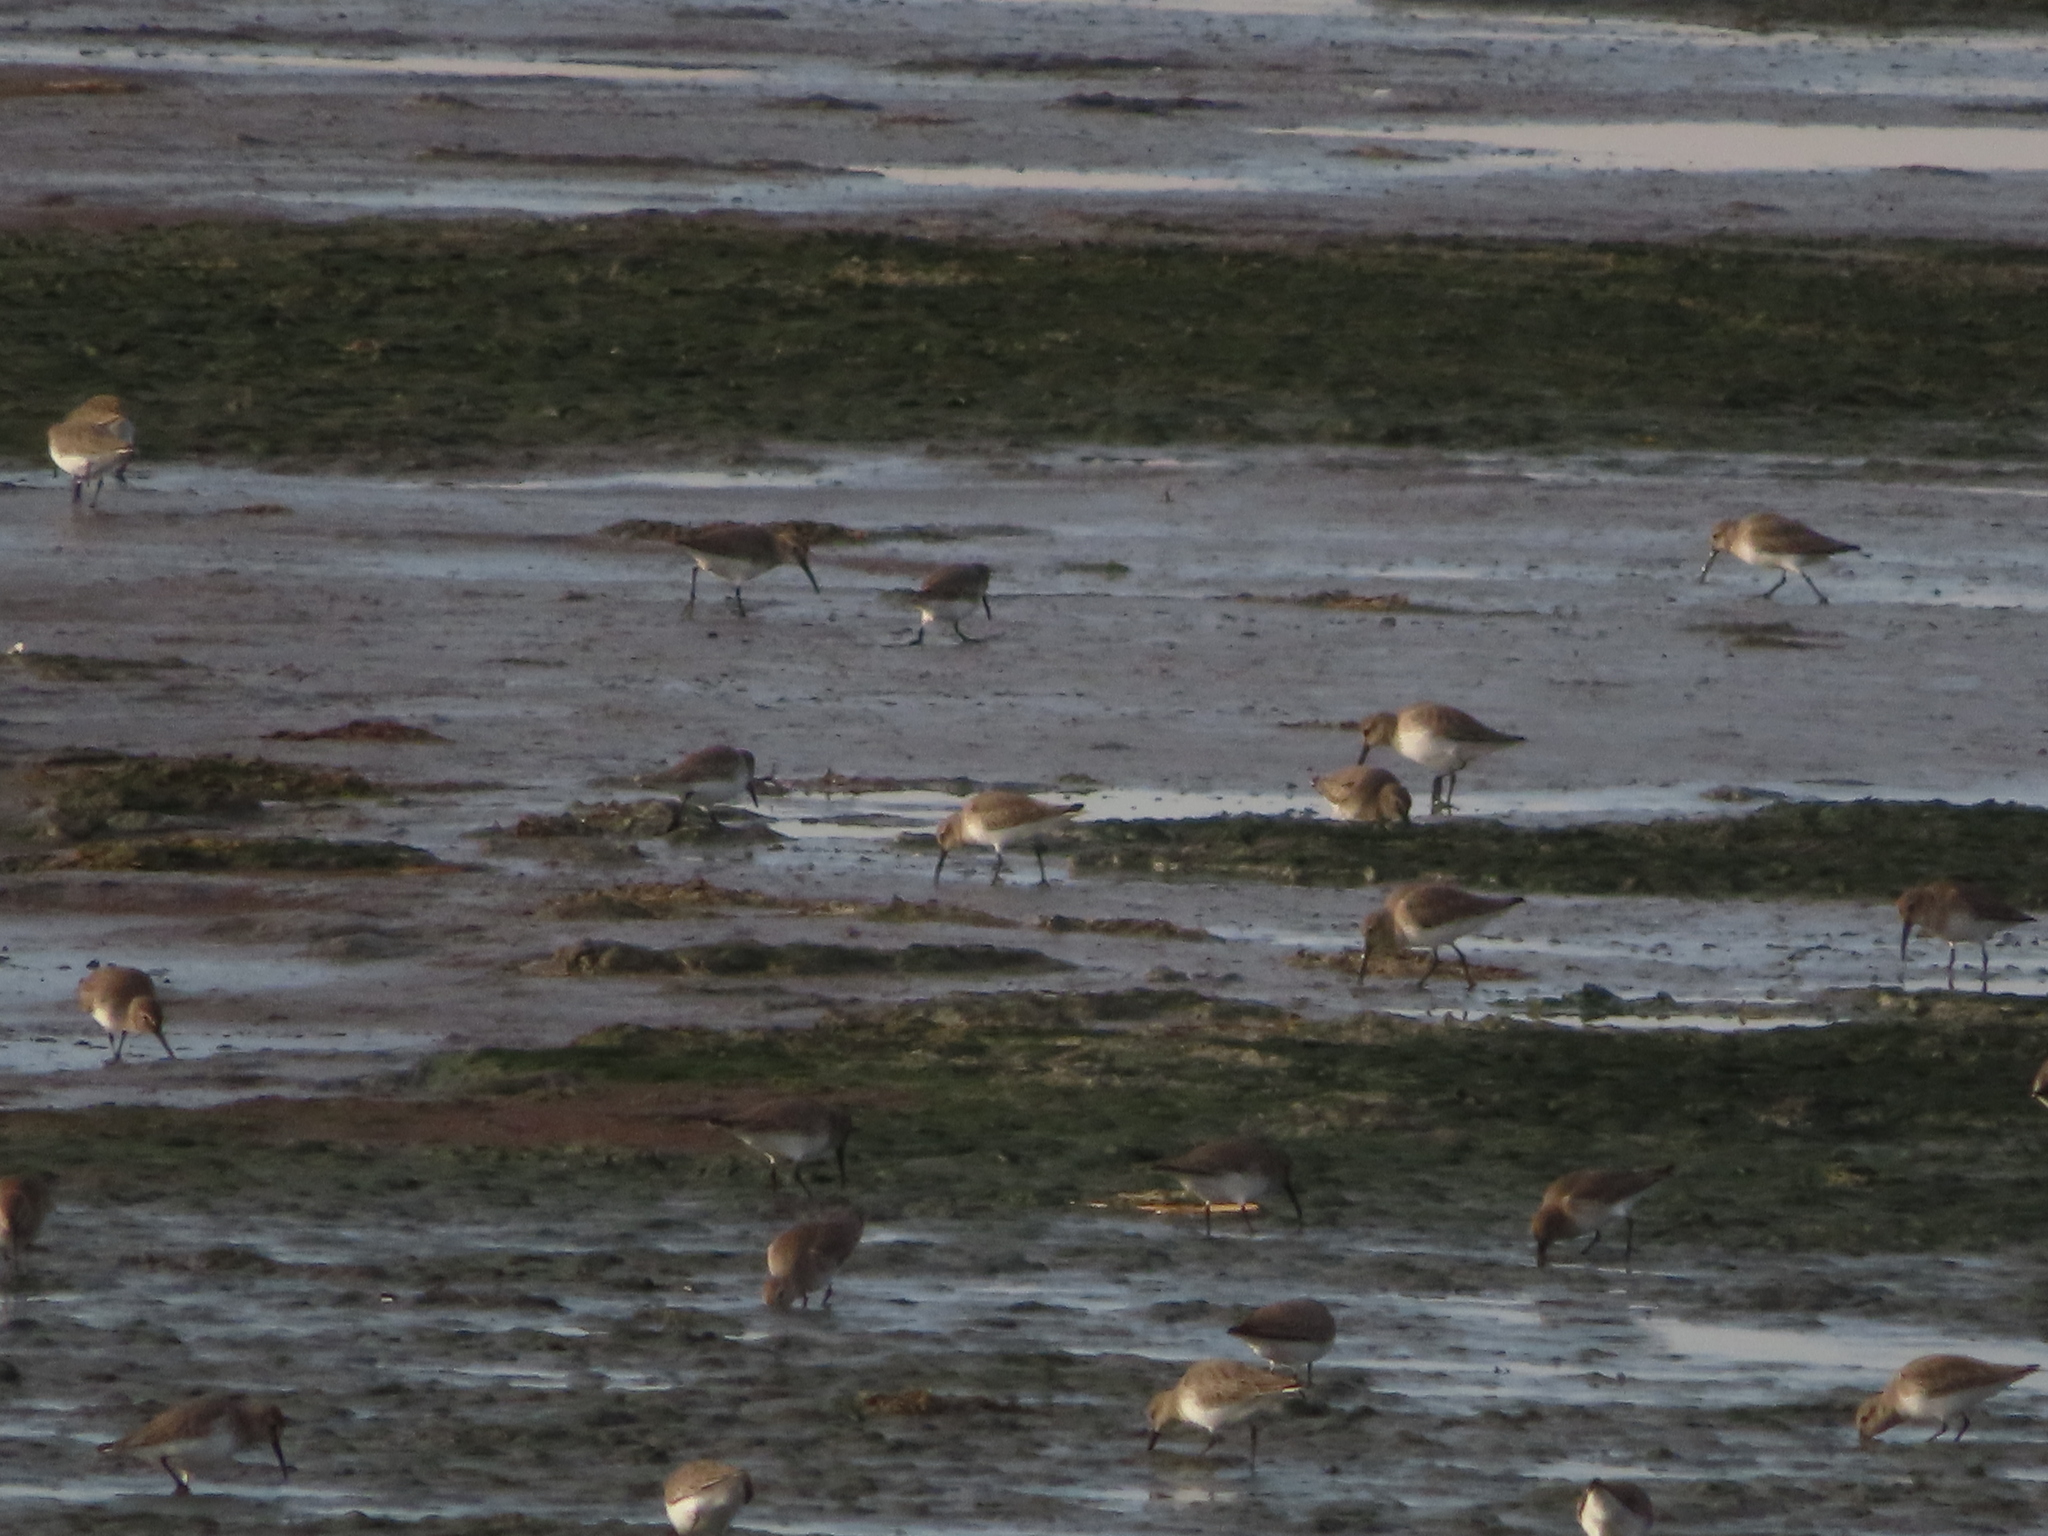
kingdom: Animalia
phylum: Chordata
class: Aves
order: Charadriiformes
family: Scolopacidae
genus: Calidris
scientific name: Calidris alpina
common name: Dunlin
